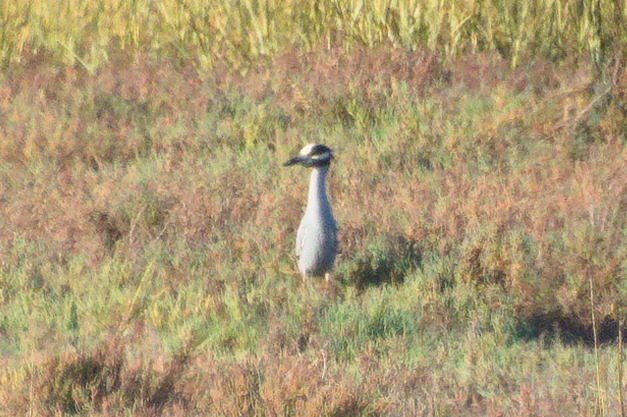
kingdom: Animalia
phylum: Chordata
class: Aves
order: Pelecaniformes
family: Ardeidae
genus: Nyctanassa
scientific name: Nyctanassa violacea
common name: Yellow-crowned night heron
